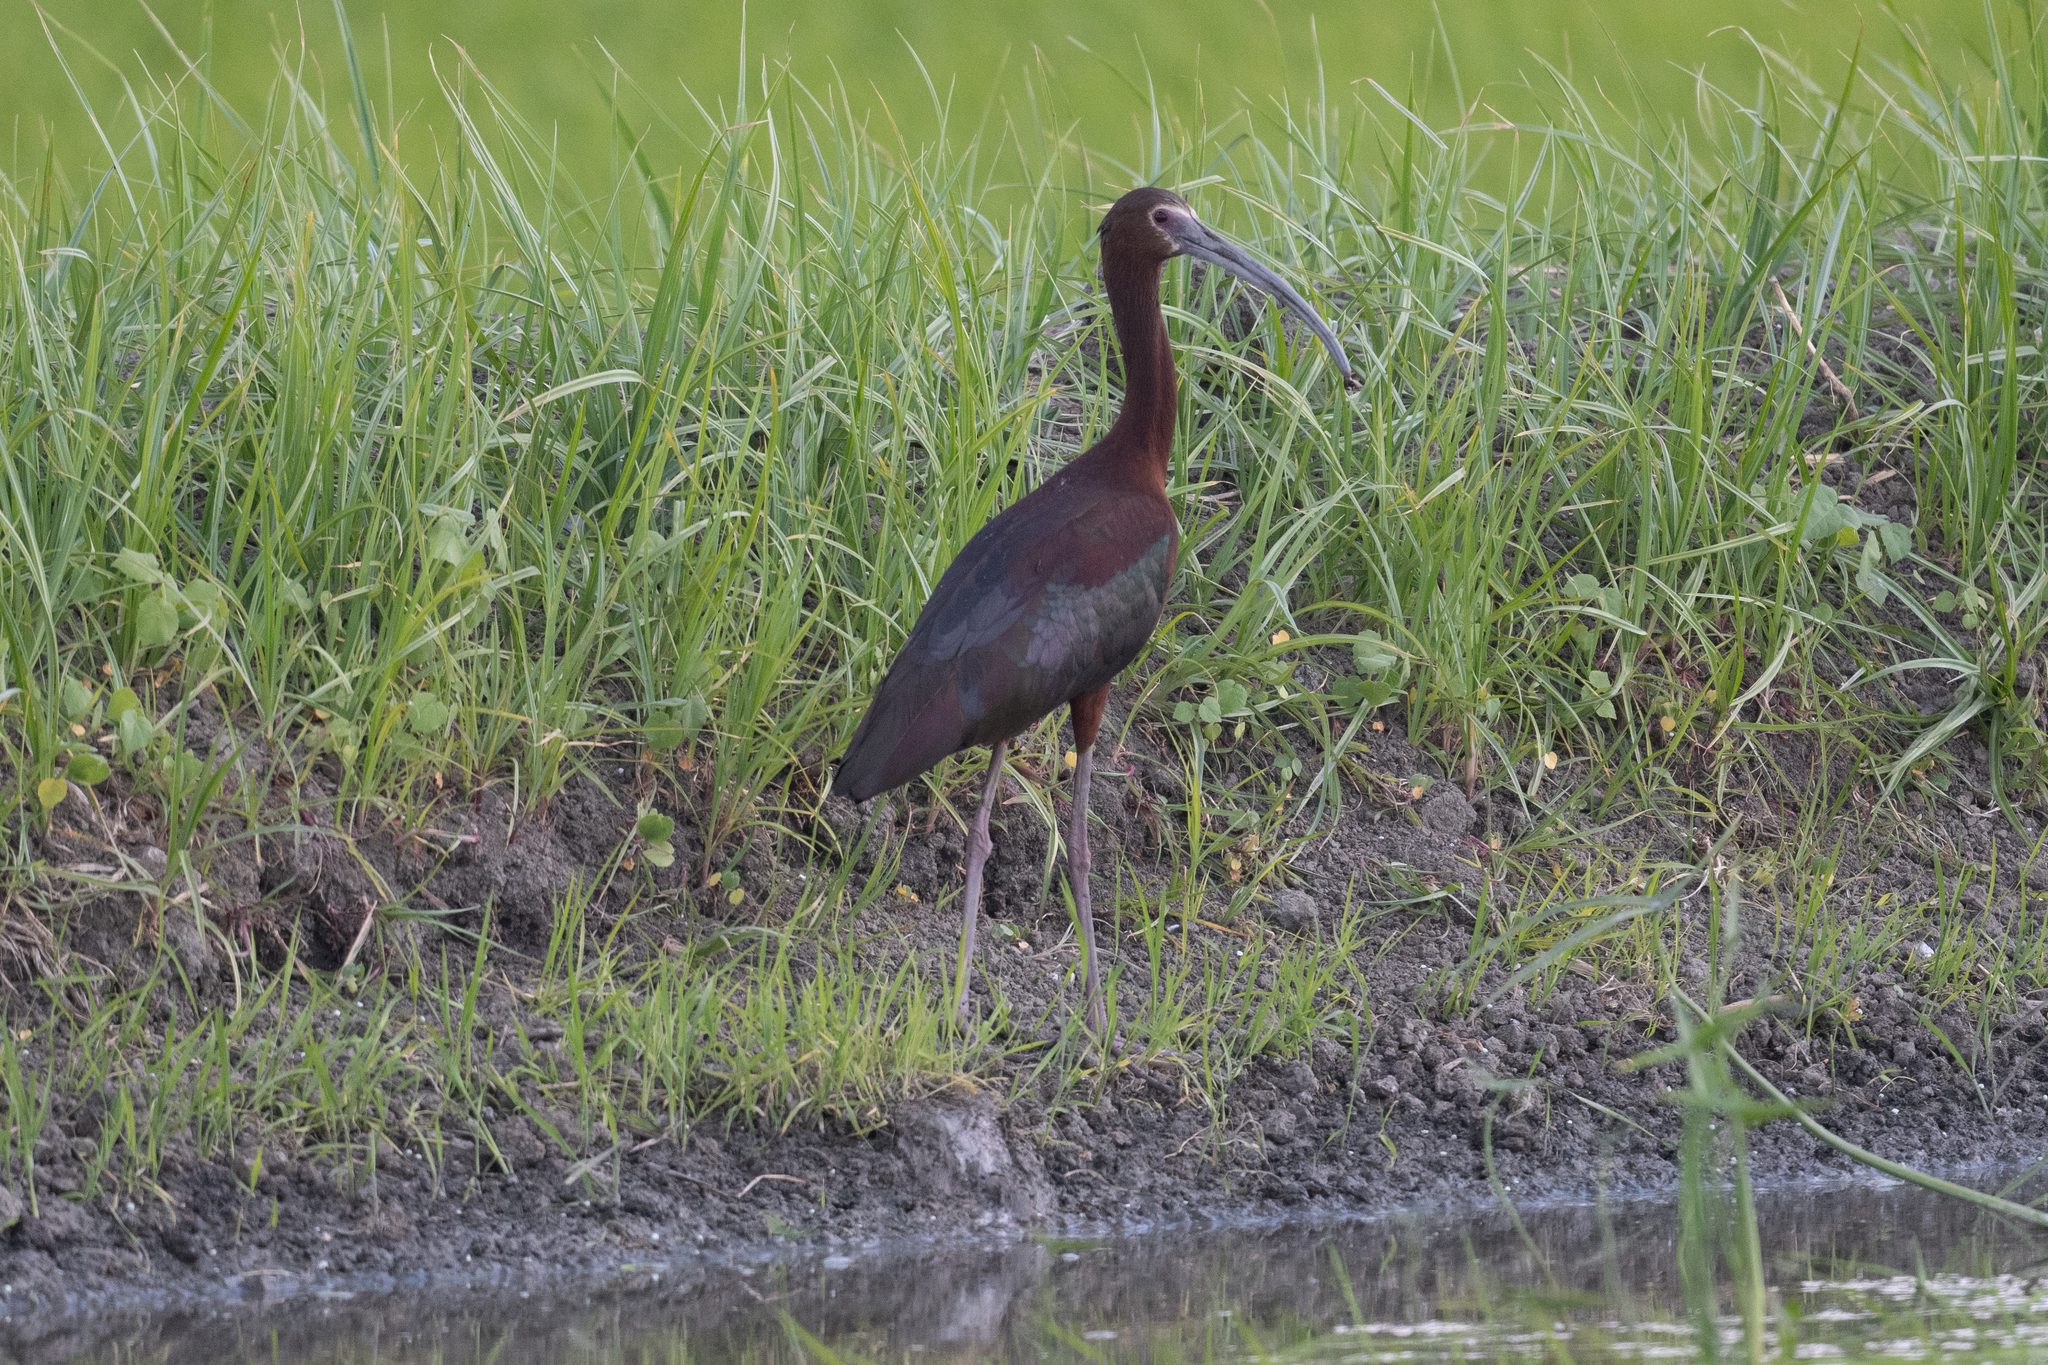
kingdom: Animalia
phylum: Chordata
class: Aves
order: Pelecaniformes
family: Threskiornithidae
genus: Plegadis
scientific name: Plegadis chihi
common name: White-faced ibis
